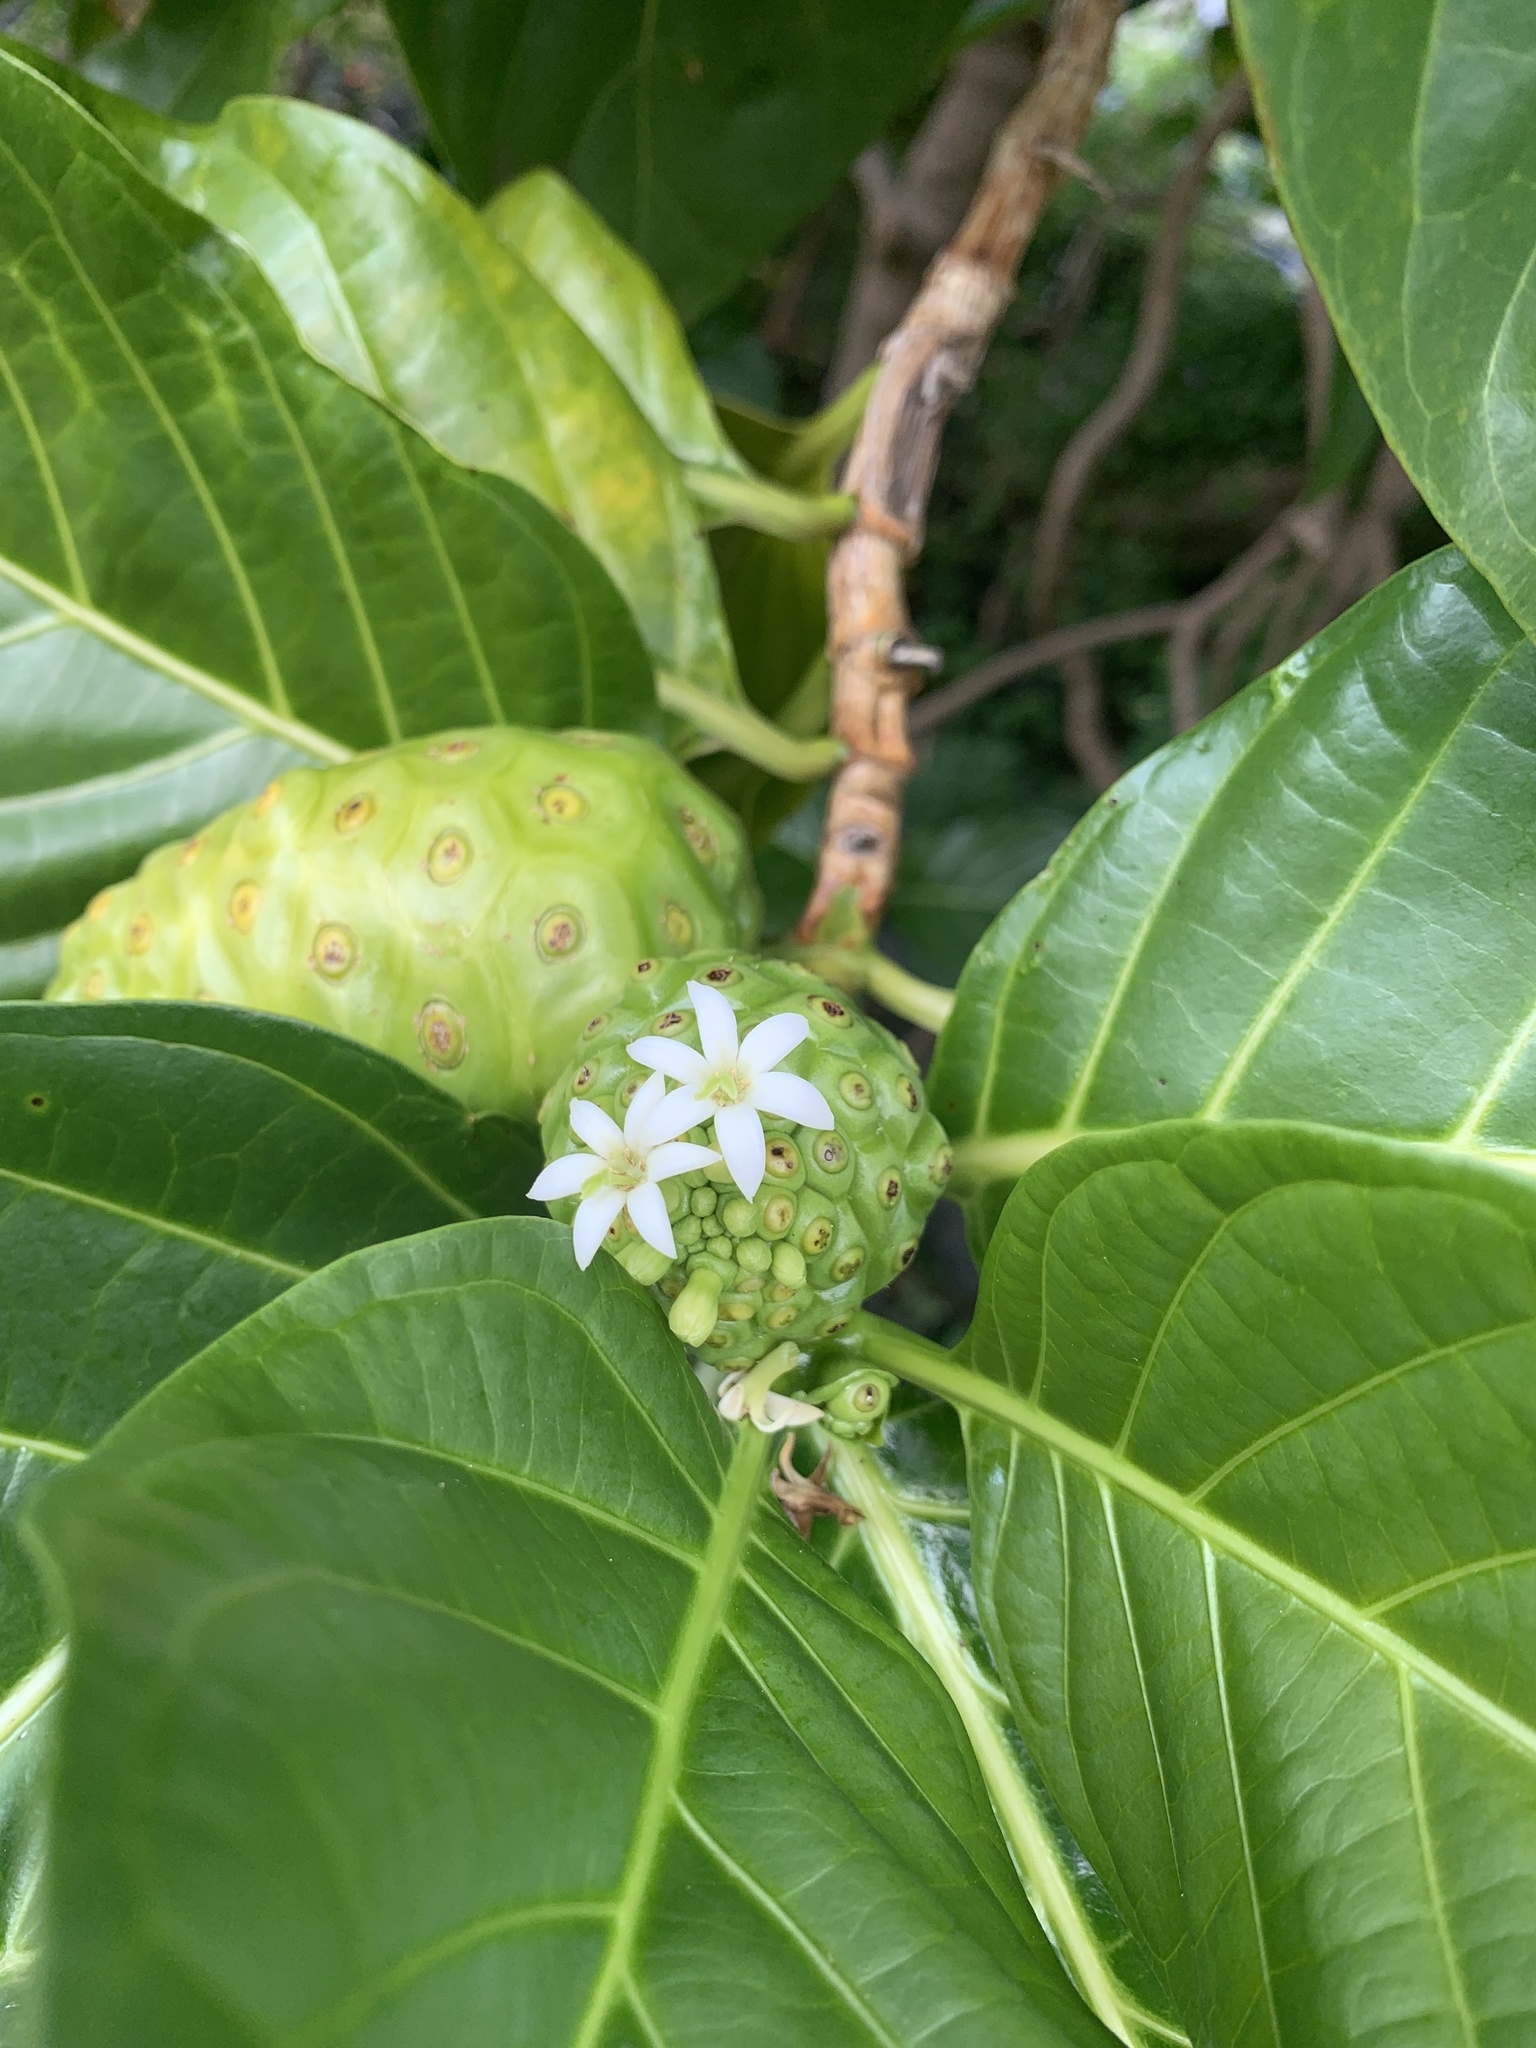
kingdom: Plantae
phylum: Tracheophyta
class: Magnoliopsida
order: Gentianales
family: Rubiaceae
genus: Morinda
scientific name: Morinda citrifolia
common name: Indian-mulberry
